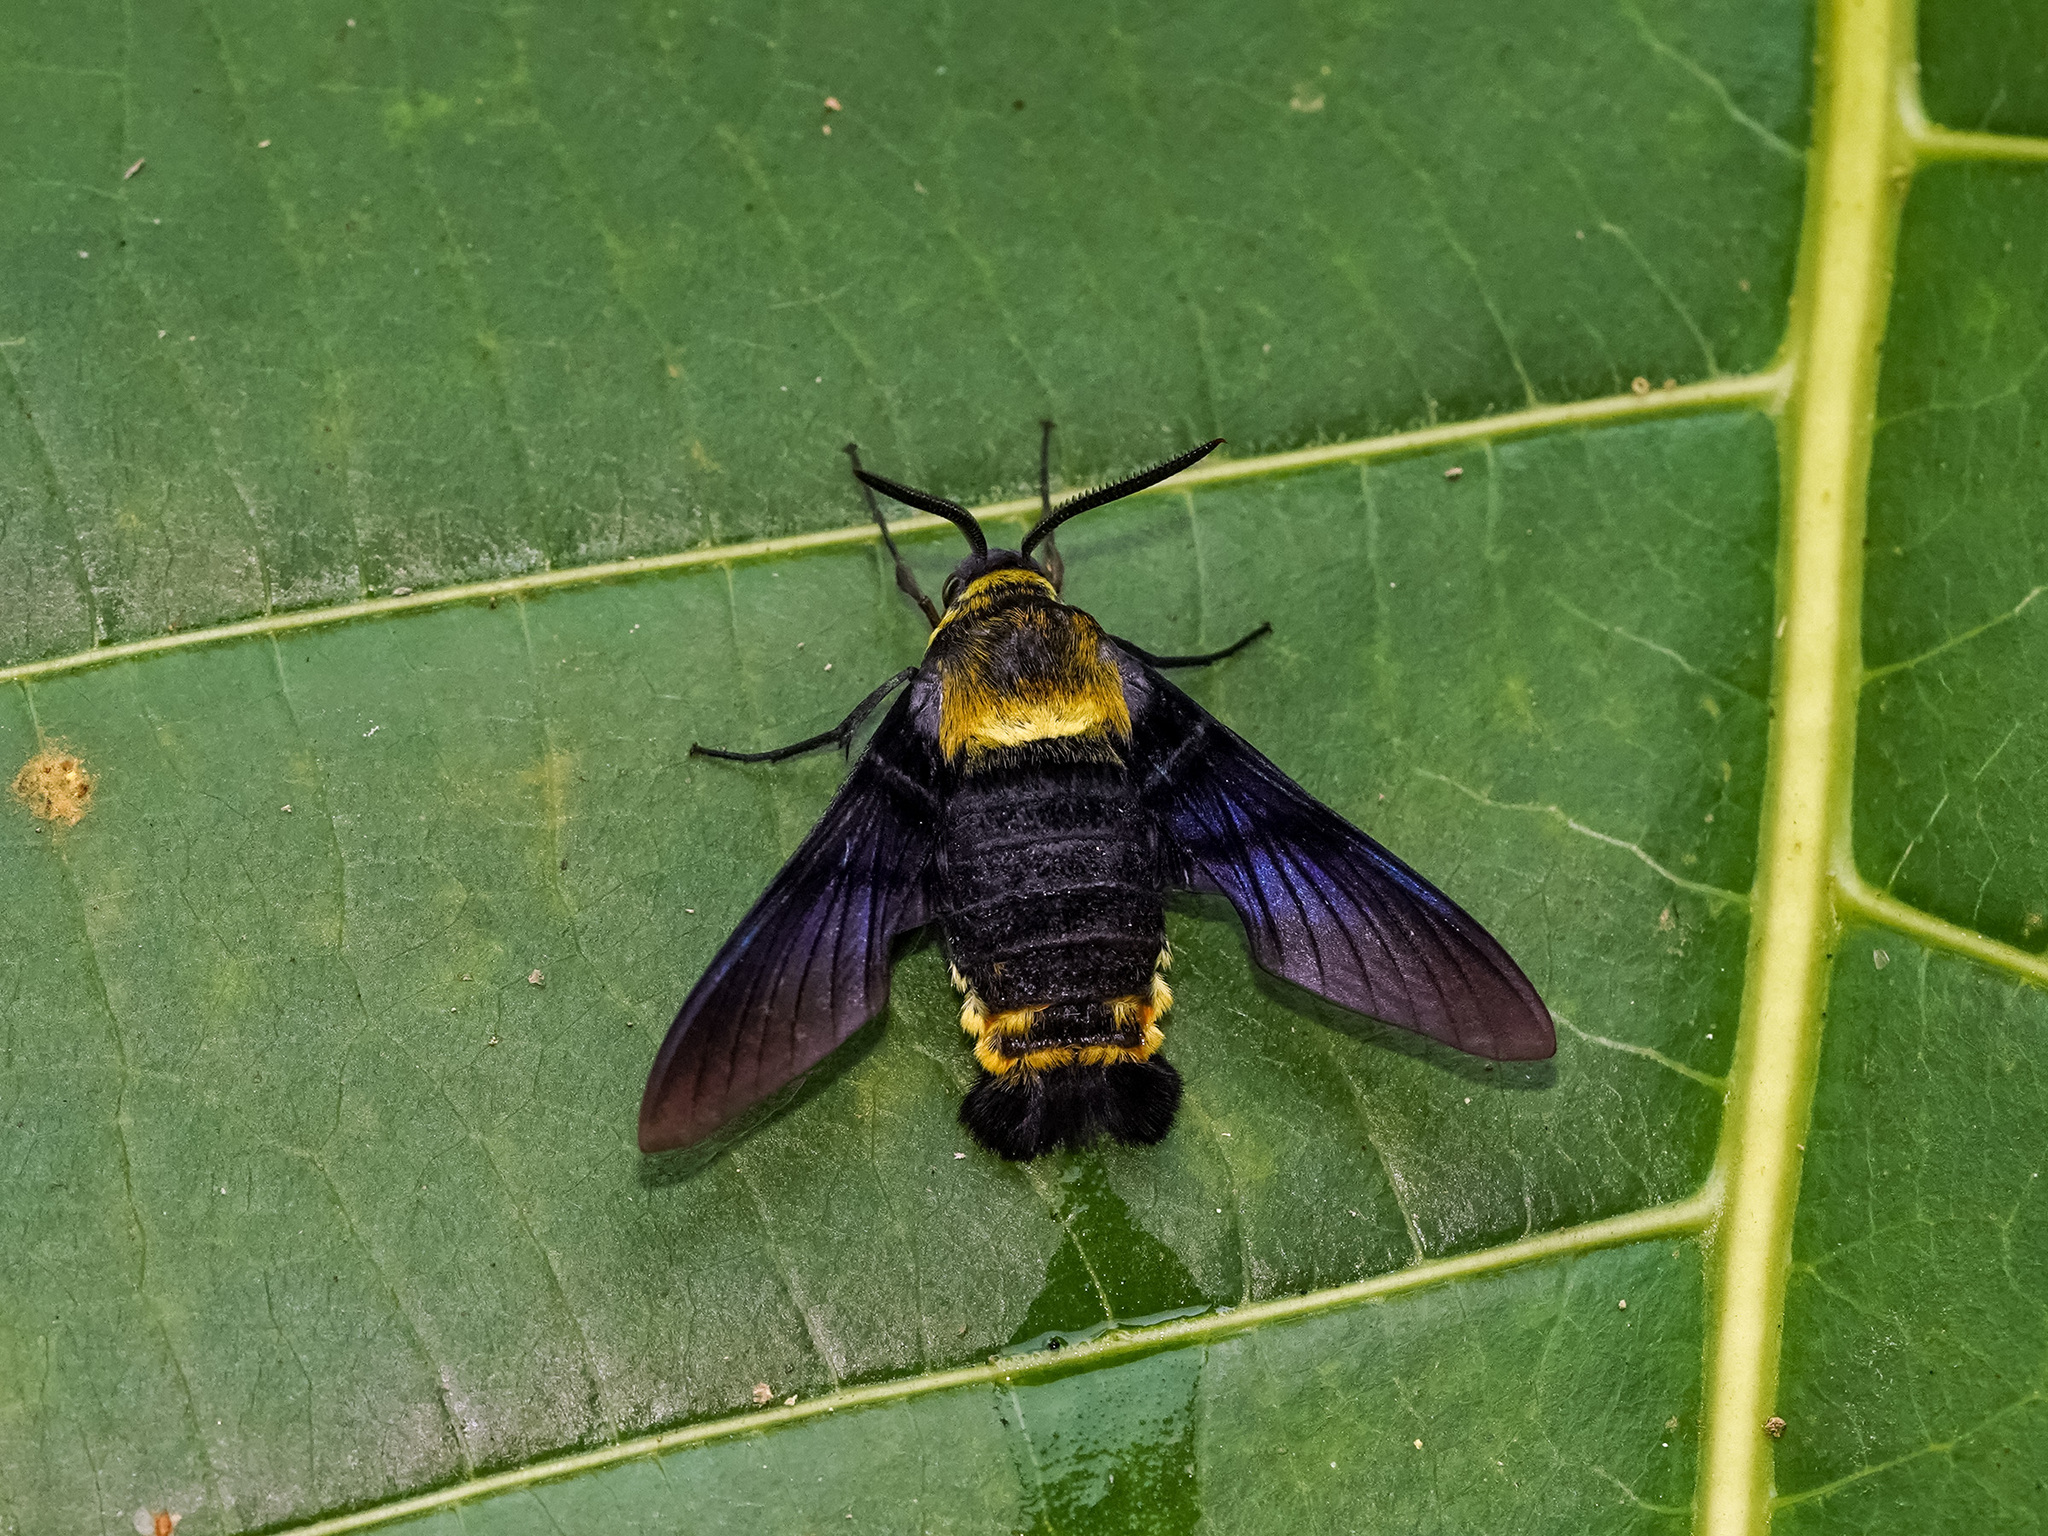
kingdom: Animalia
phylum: Arthropoda
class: Insecta
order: Lepidoptera
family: Sphingidae
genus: Sataspes
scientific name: Sataspes infernalis
